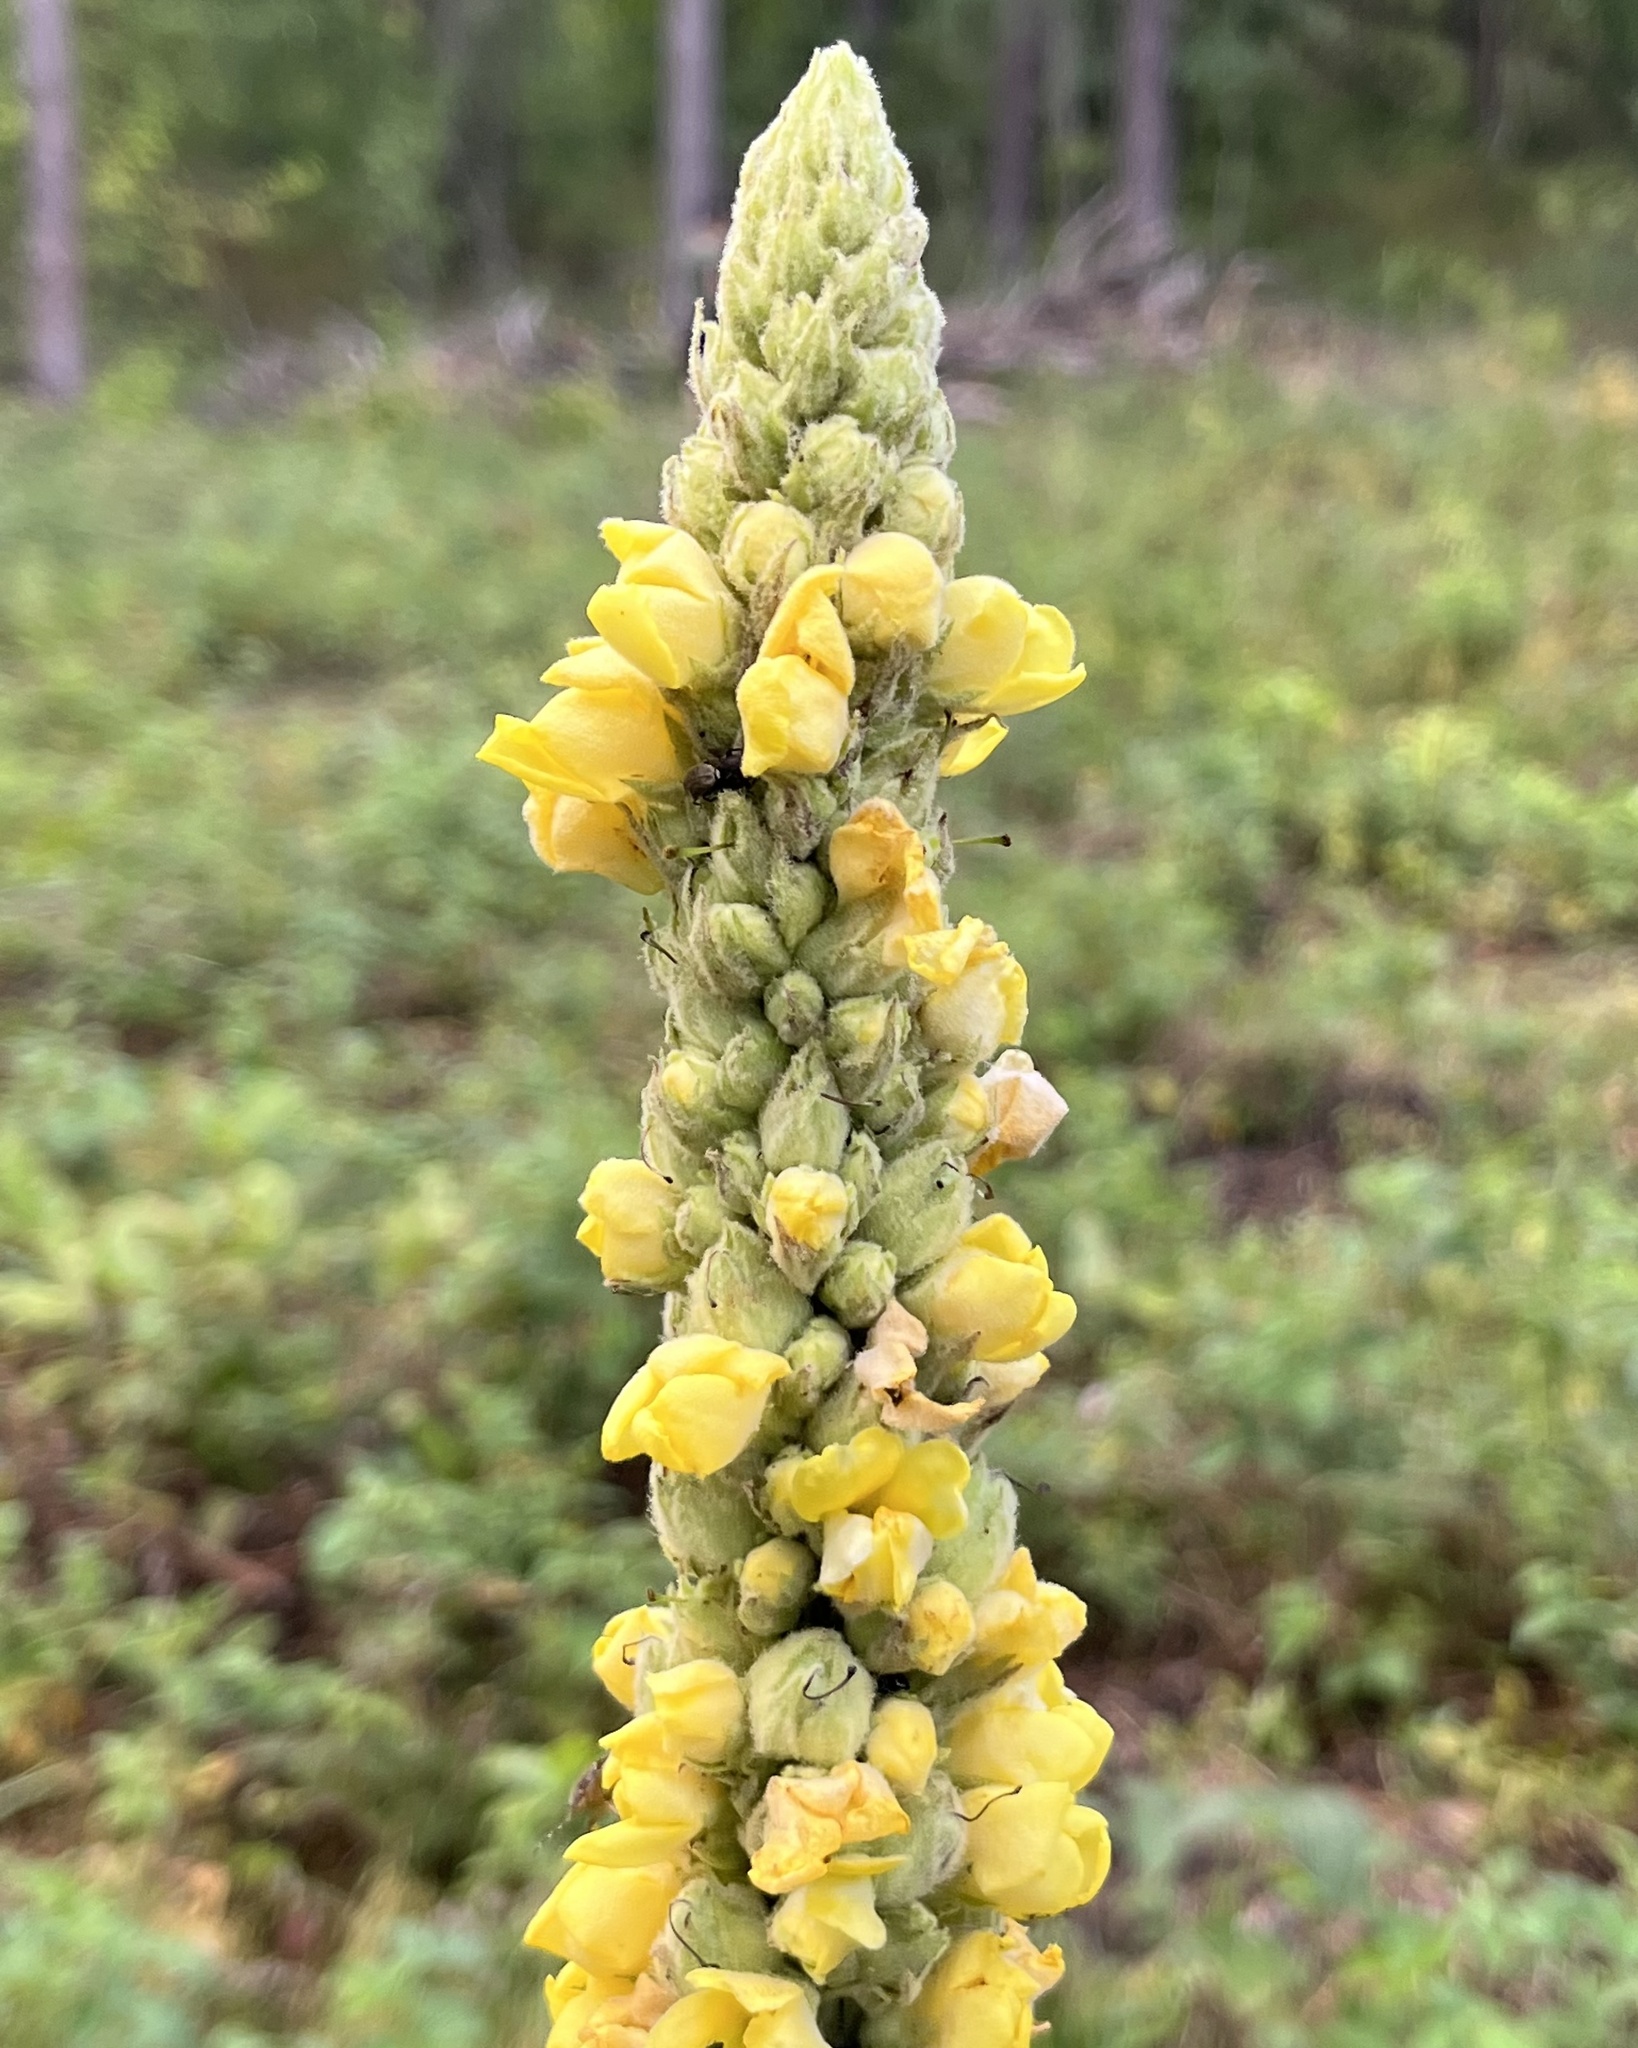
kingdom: Plantae
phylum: Tracheophyta
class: Magnoliopsida
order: Lamiales
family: Scrophulariaceae
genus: Verbascum
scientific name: Verbascum thapsus
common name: Common mullein
